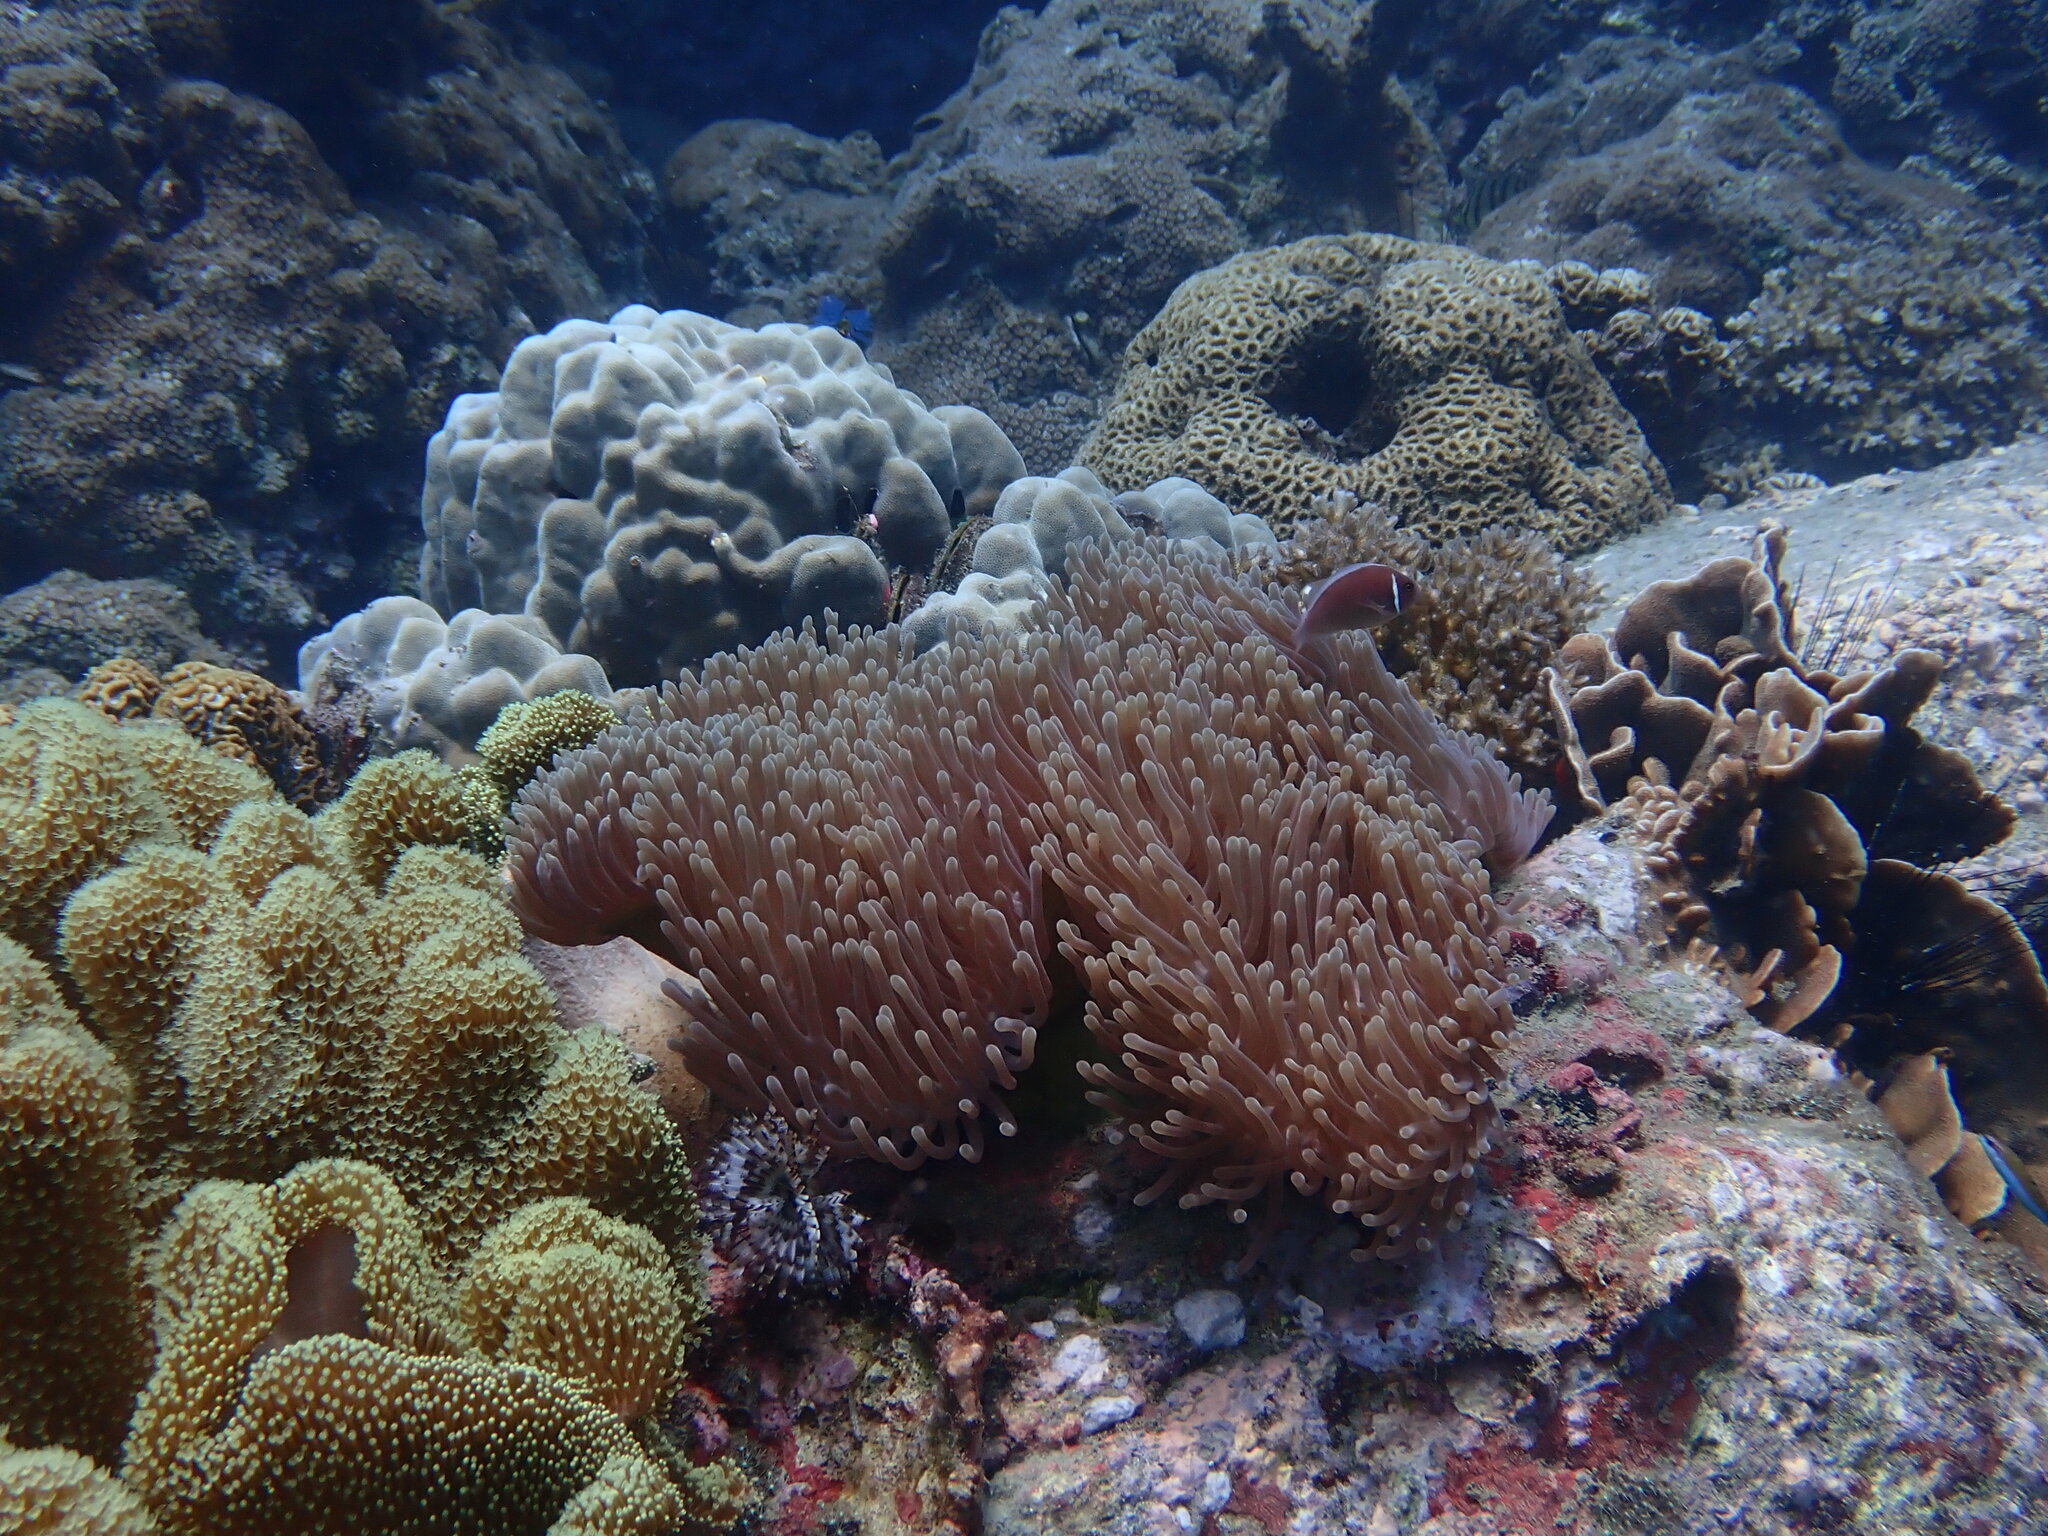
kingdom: Animalia
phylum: Cnidaria
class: Anthozoa
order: Actiniaria
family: Stichodactylidae
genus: Radianthus
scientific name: Radianthus magnifica
